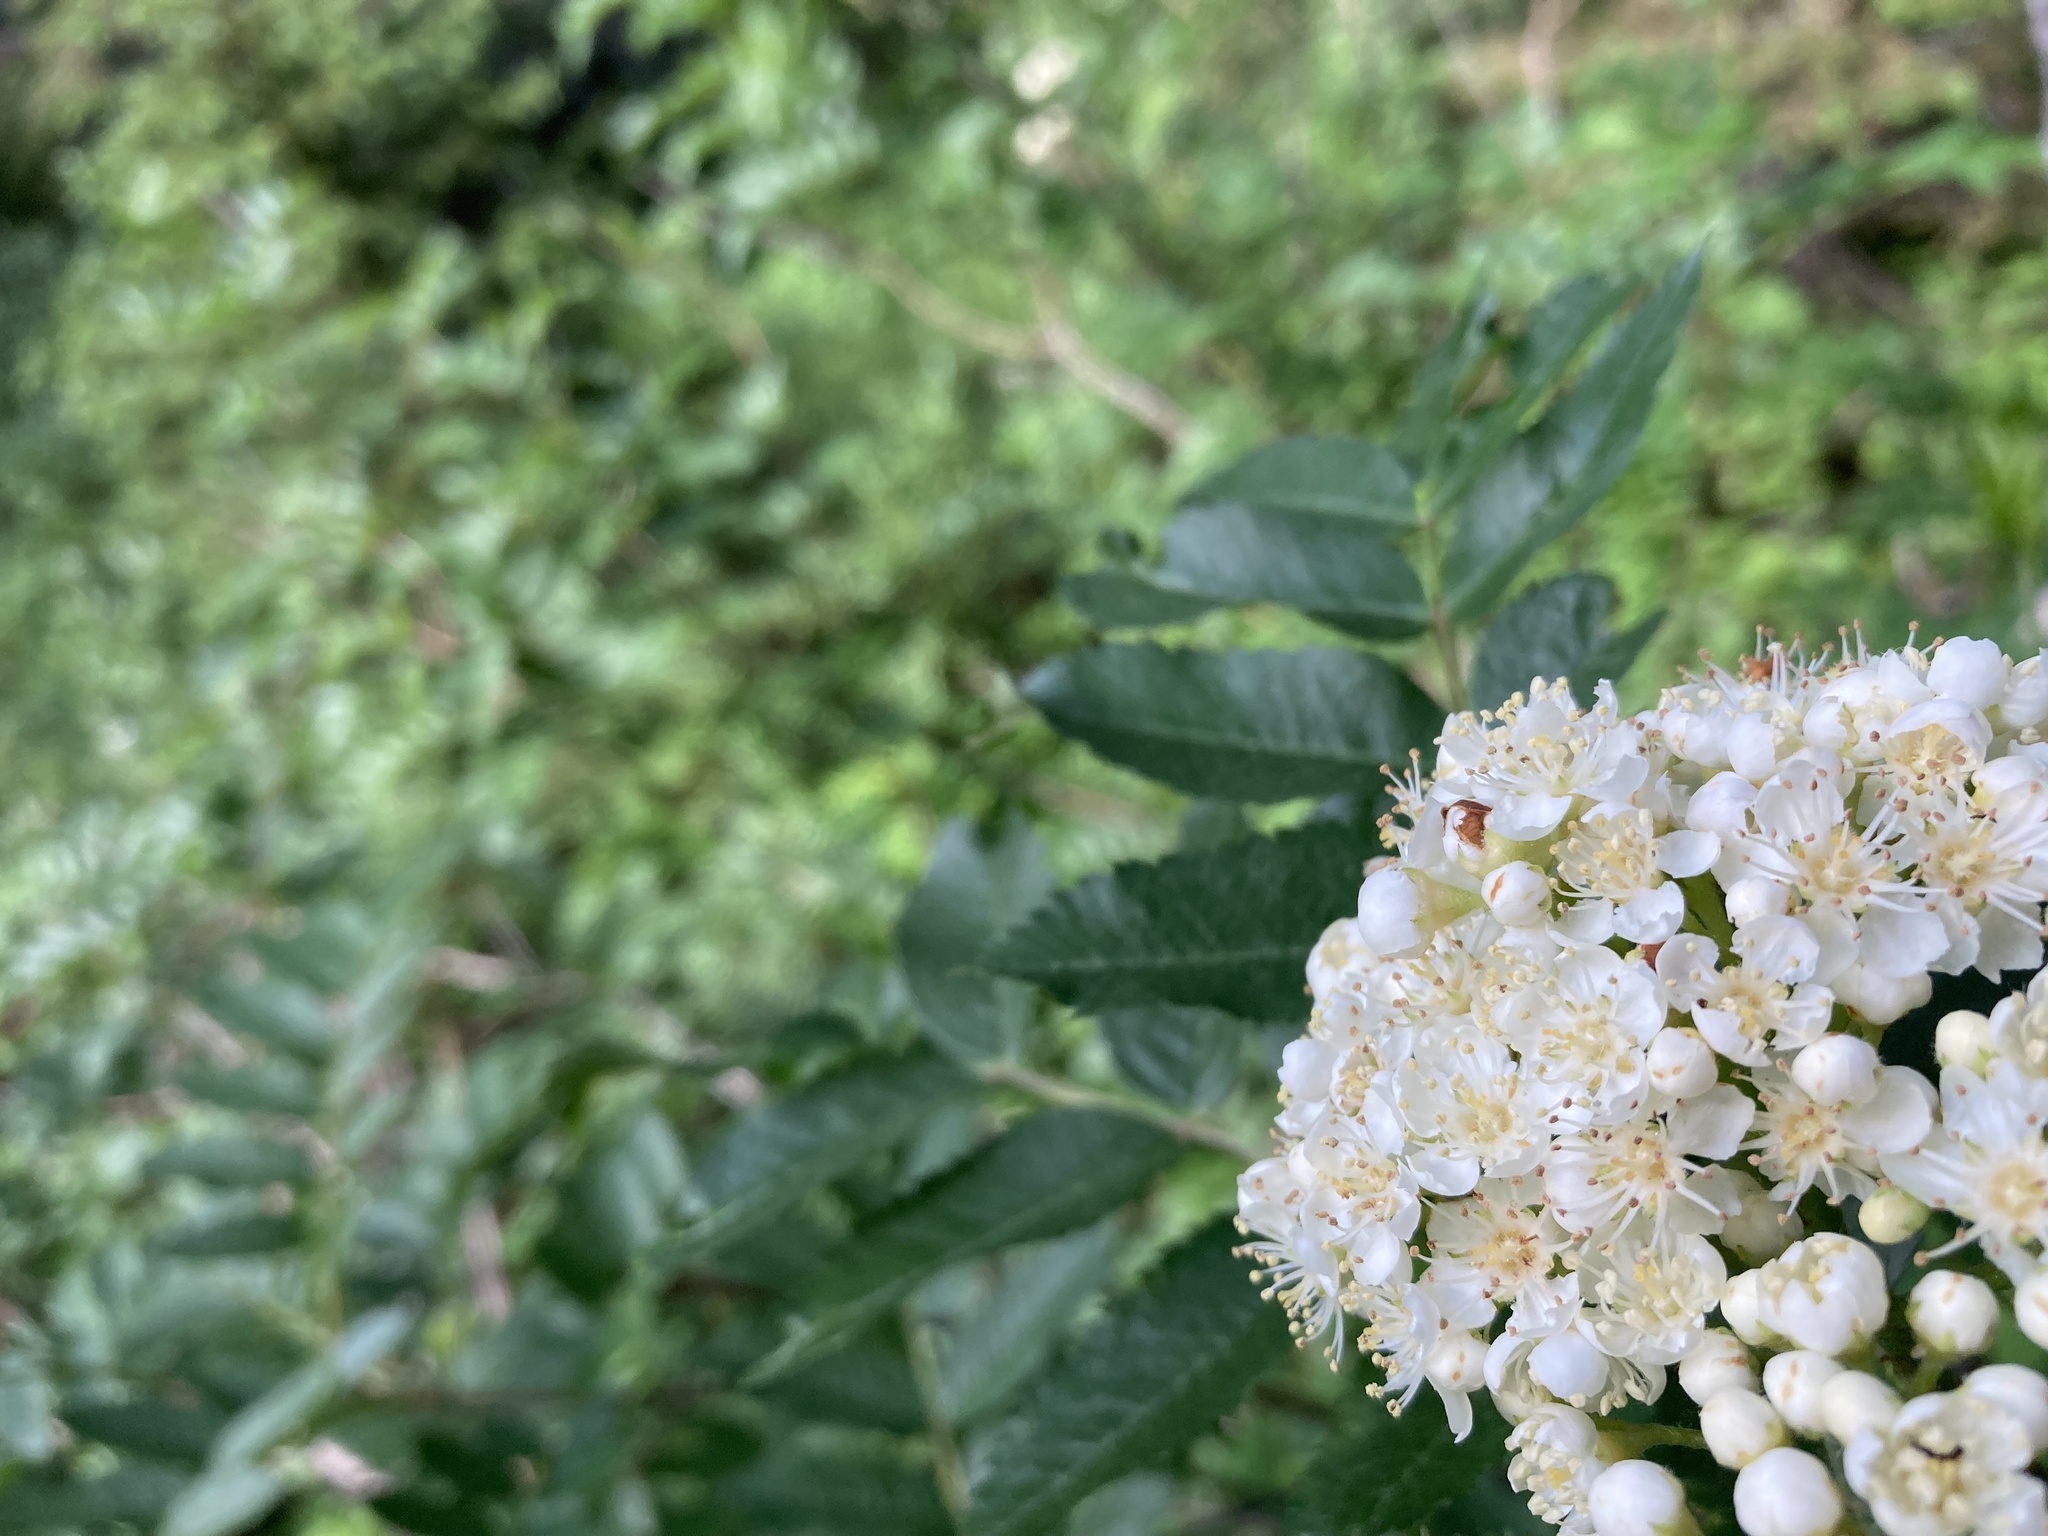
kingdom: Plantae
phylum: Tracheophyta
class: Magnoliopsida
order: Rosales
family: Rosaceae
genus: Sorbus
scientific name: Sorbus scopulina
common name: Greene's mountain-ash
